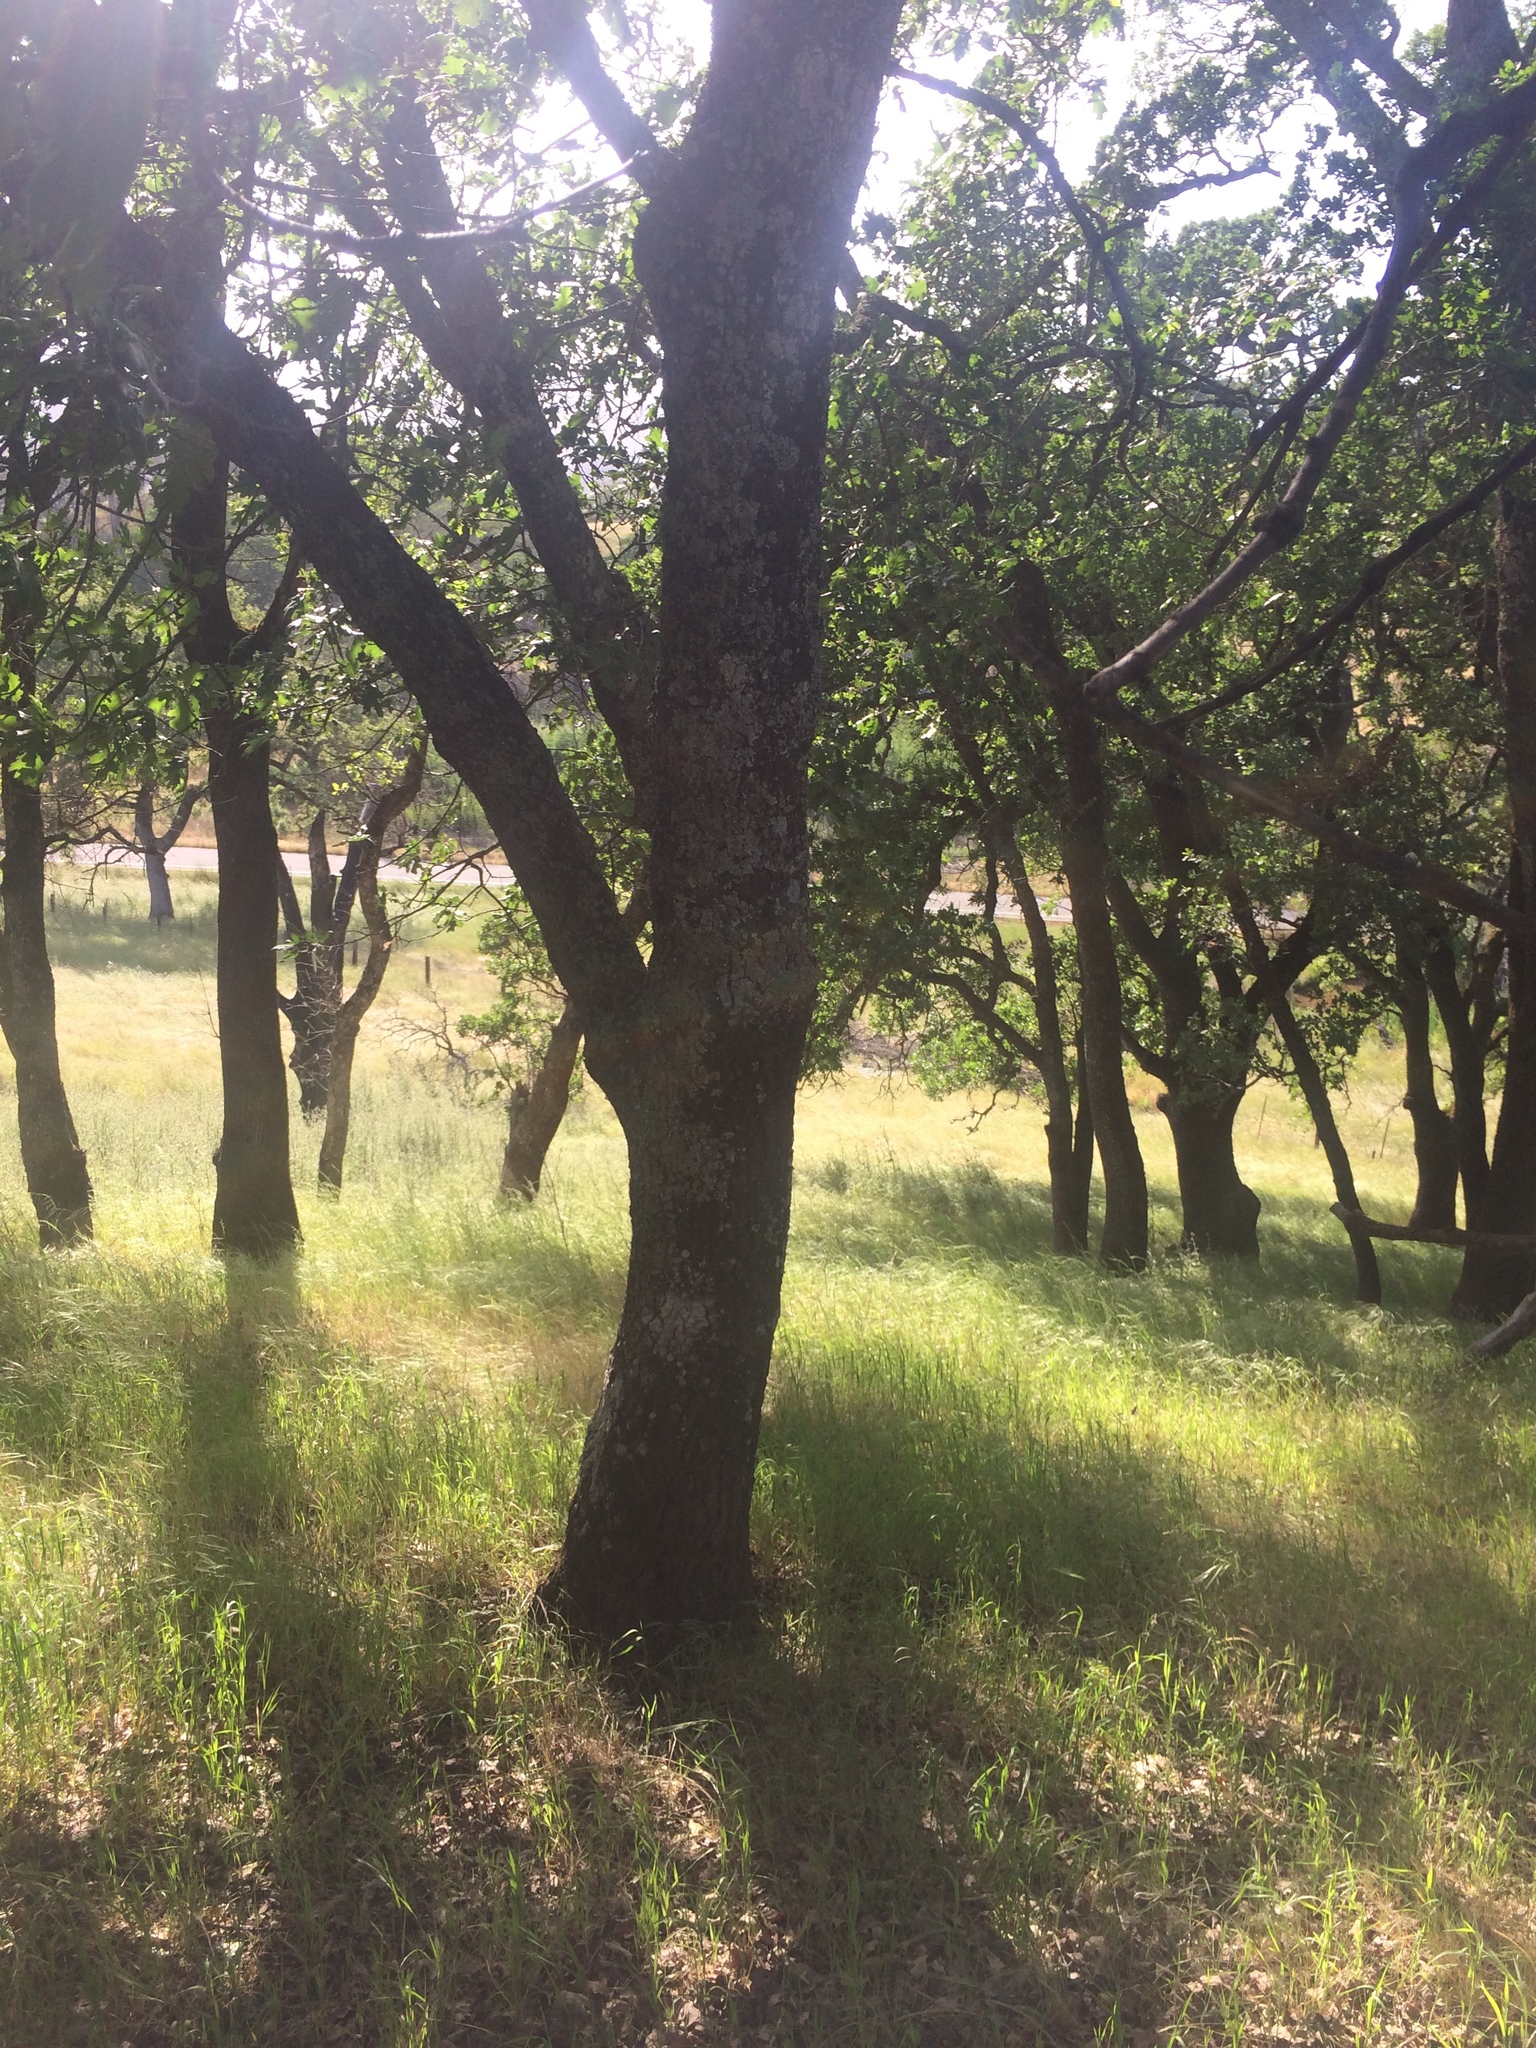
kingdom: Plantae
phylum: Tracheophyta
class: Magnoliopsida
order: Fagales
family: Fagaceae
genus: Quercus
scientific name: Quercus kelloggii
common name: California black oak
